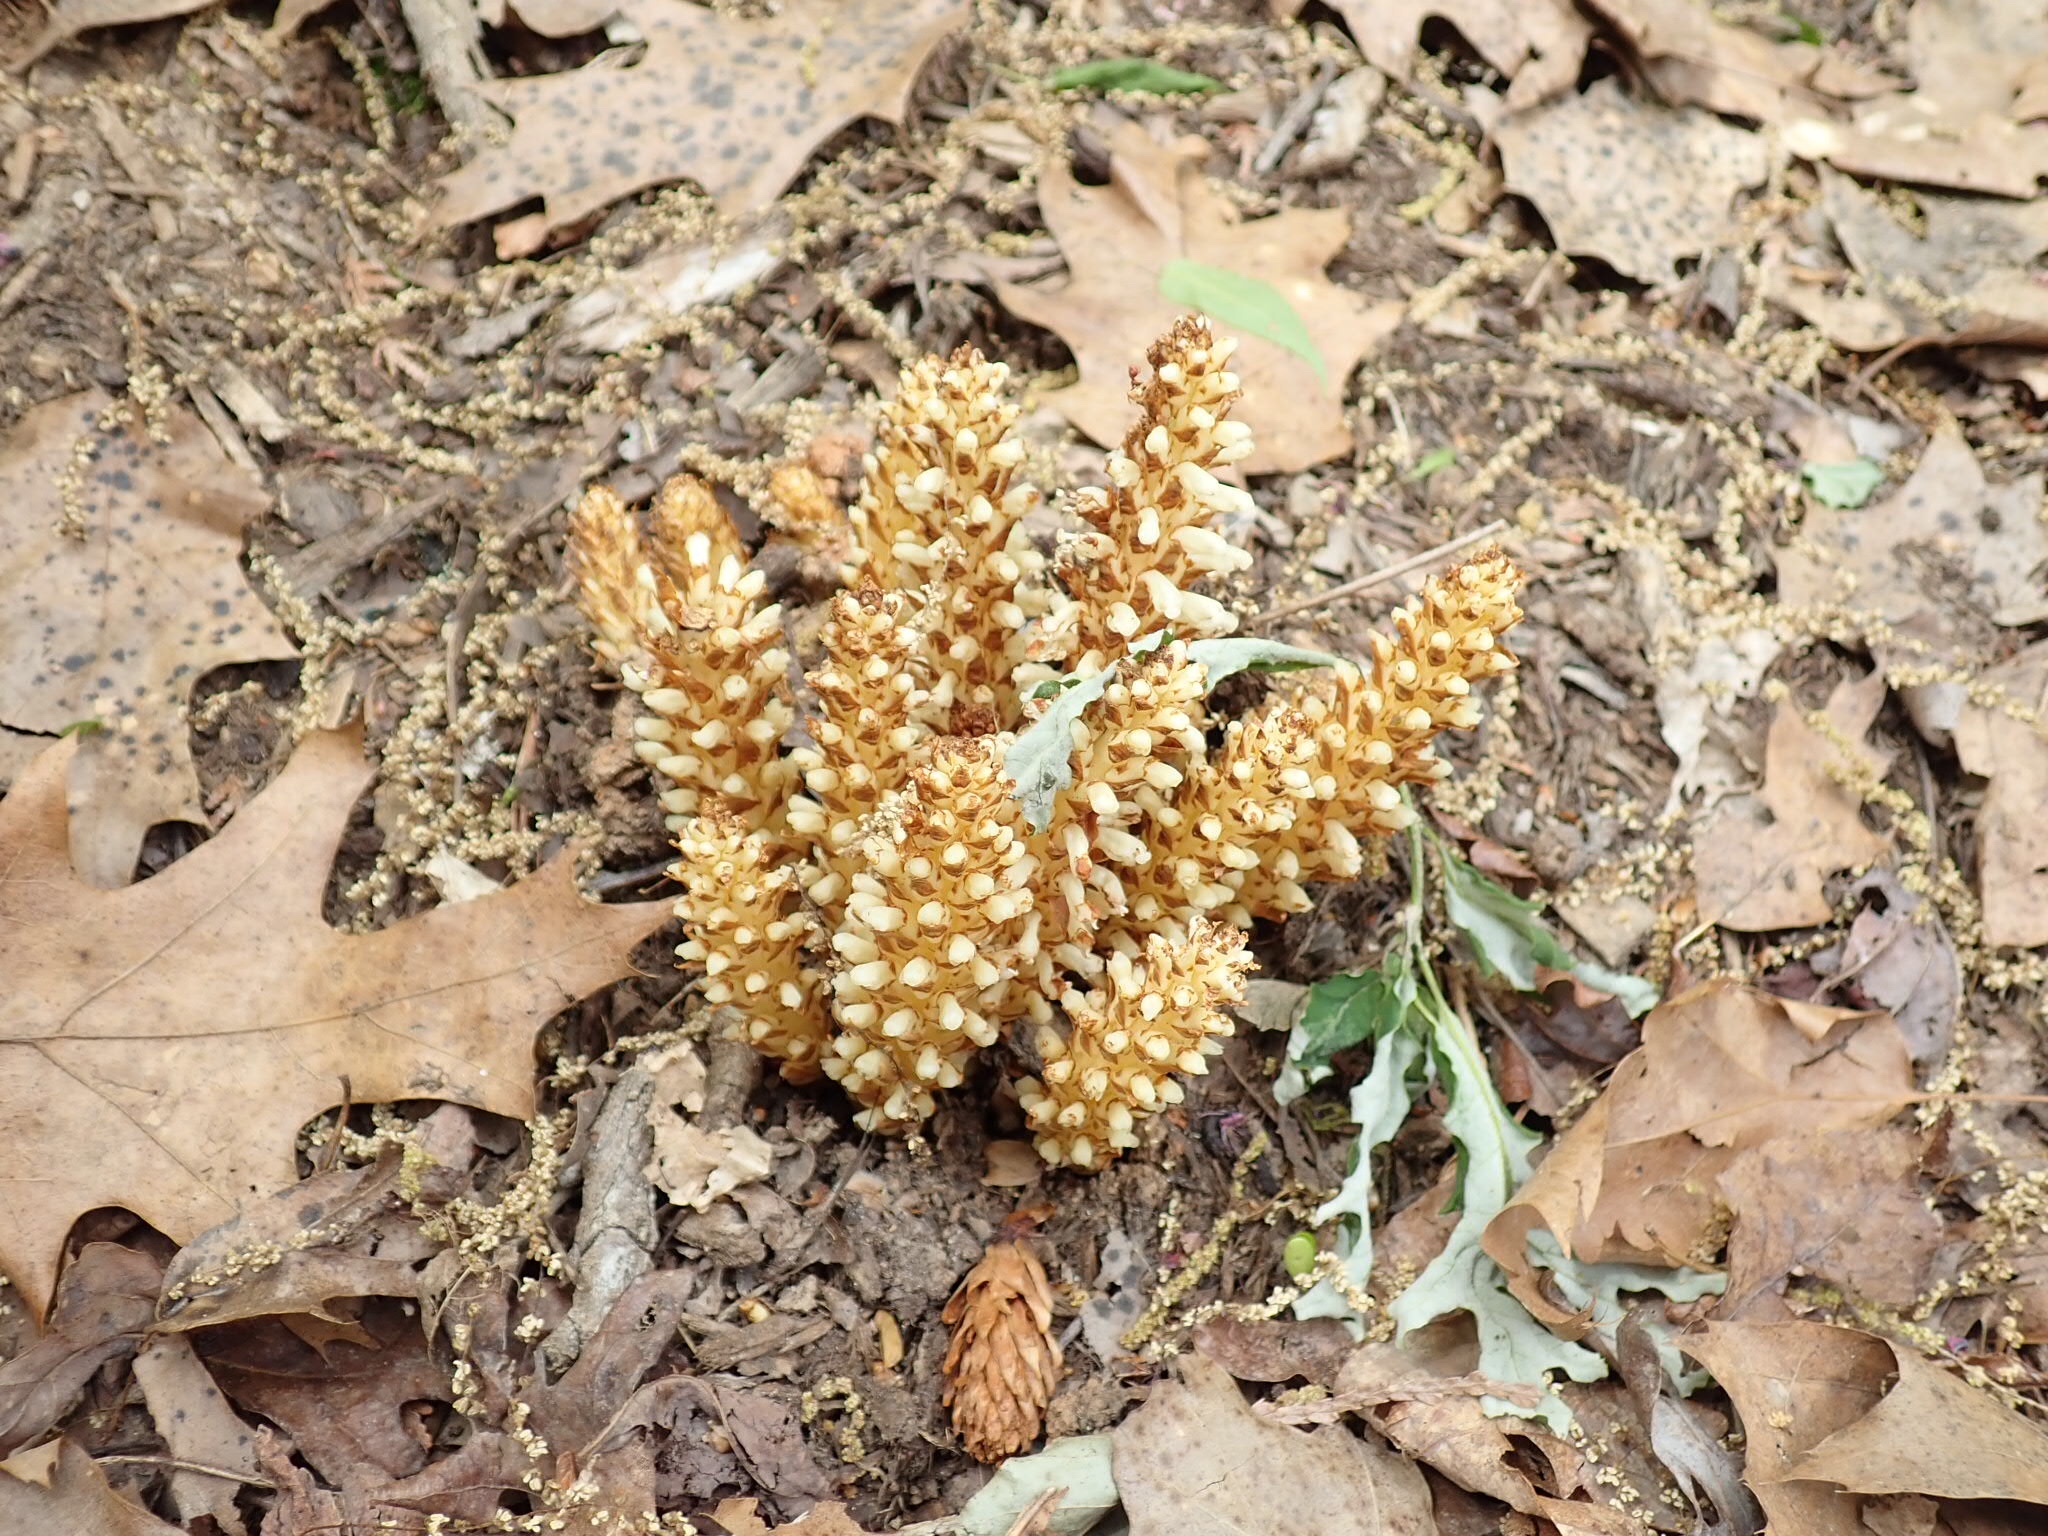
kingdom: Plantae
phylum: Tracheophyta
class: Magnoliopsida
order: Lamiales
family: Orobanchaceae
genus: Conopholis
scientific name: Conopholis americana
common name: American cancer-root
